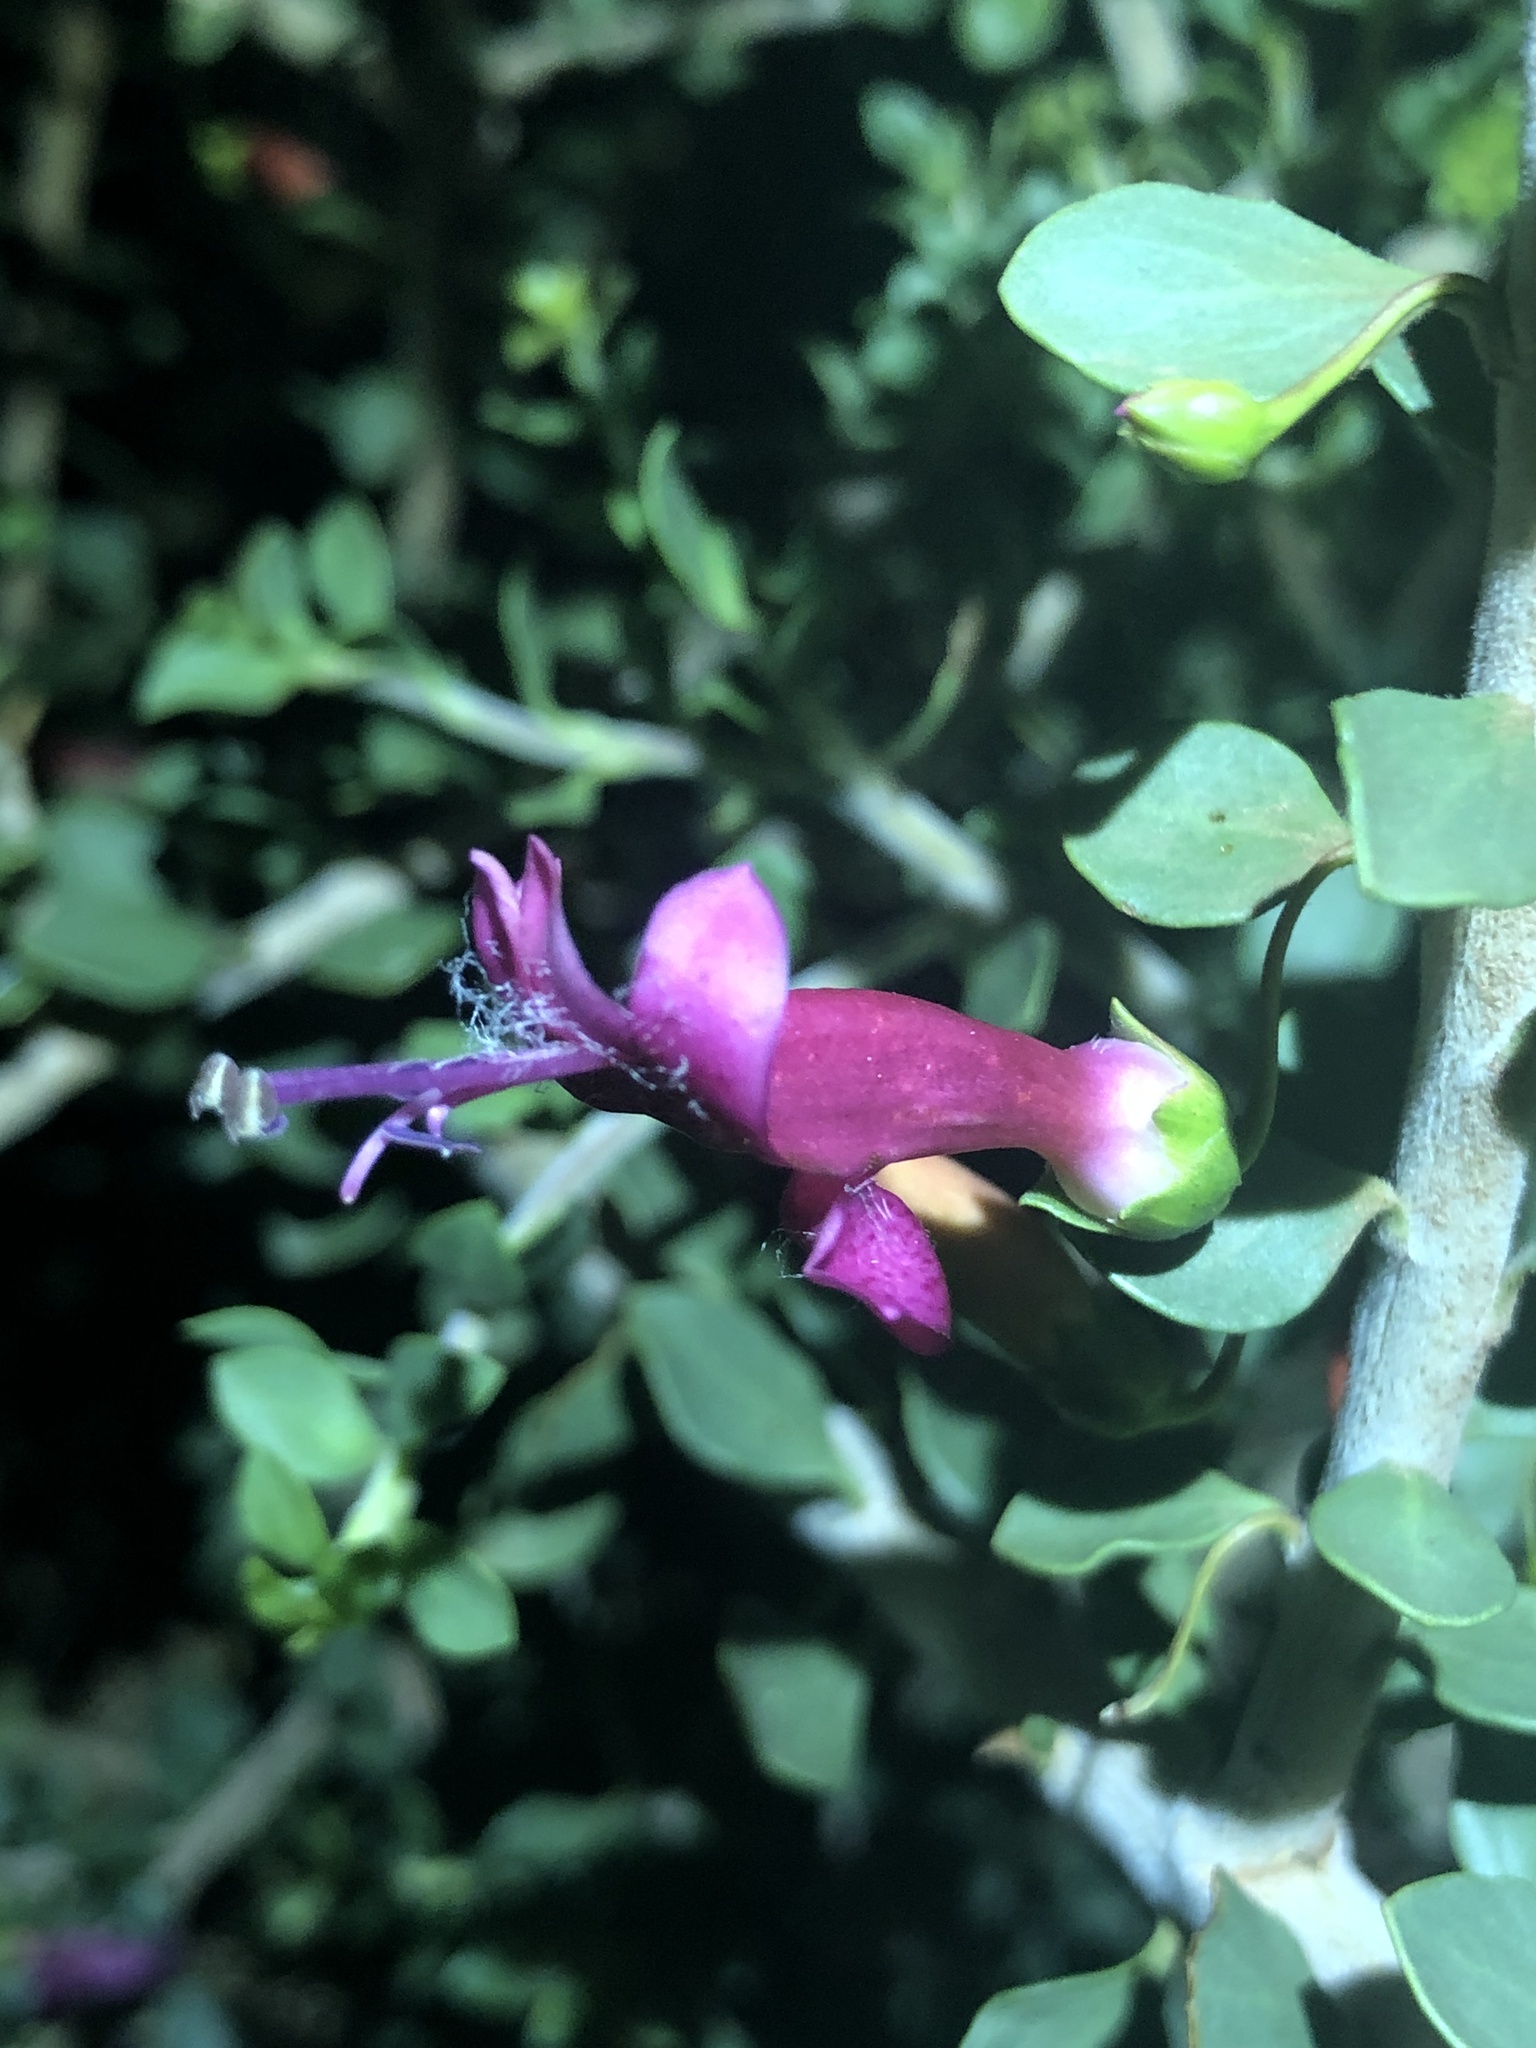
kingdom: Plantae
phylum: Tracheophyta
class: Magnoliopsida
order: Lamiales
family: Scrophulariaceae
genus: Eremophila
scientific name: Eremophila maculata
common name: Fuchsiabush
